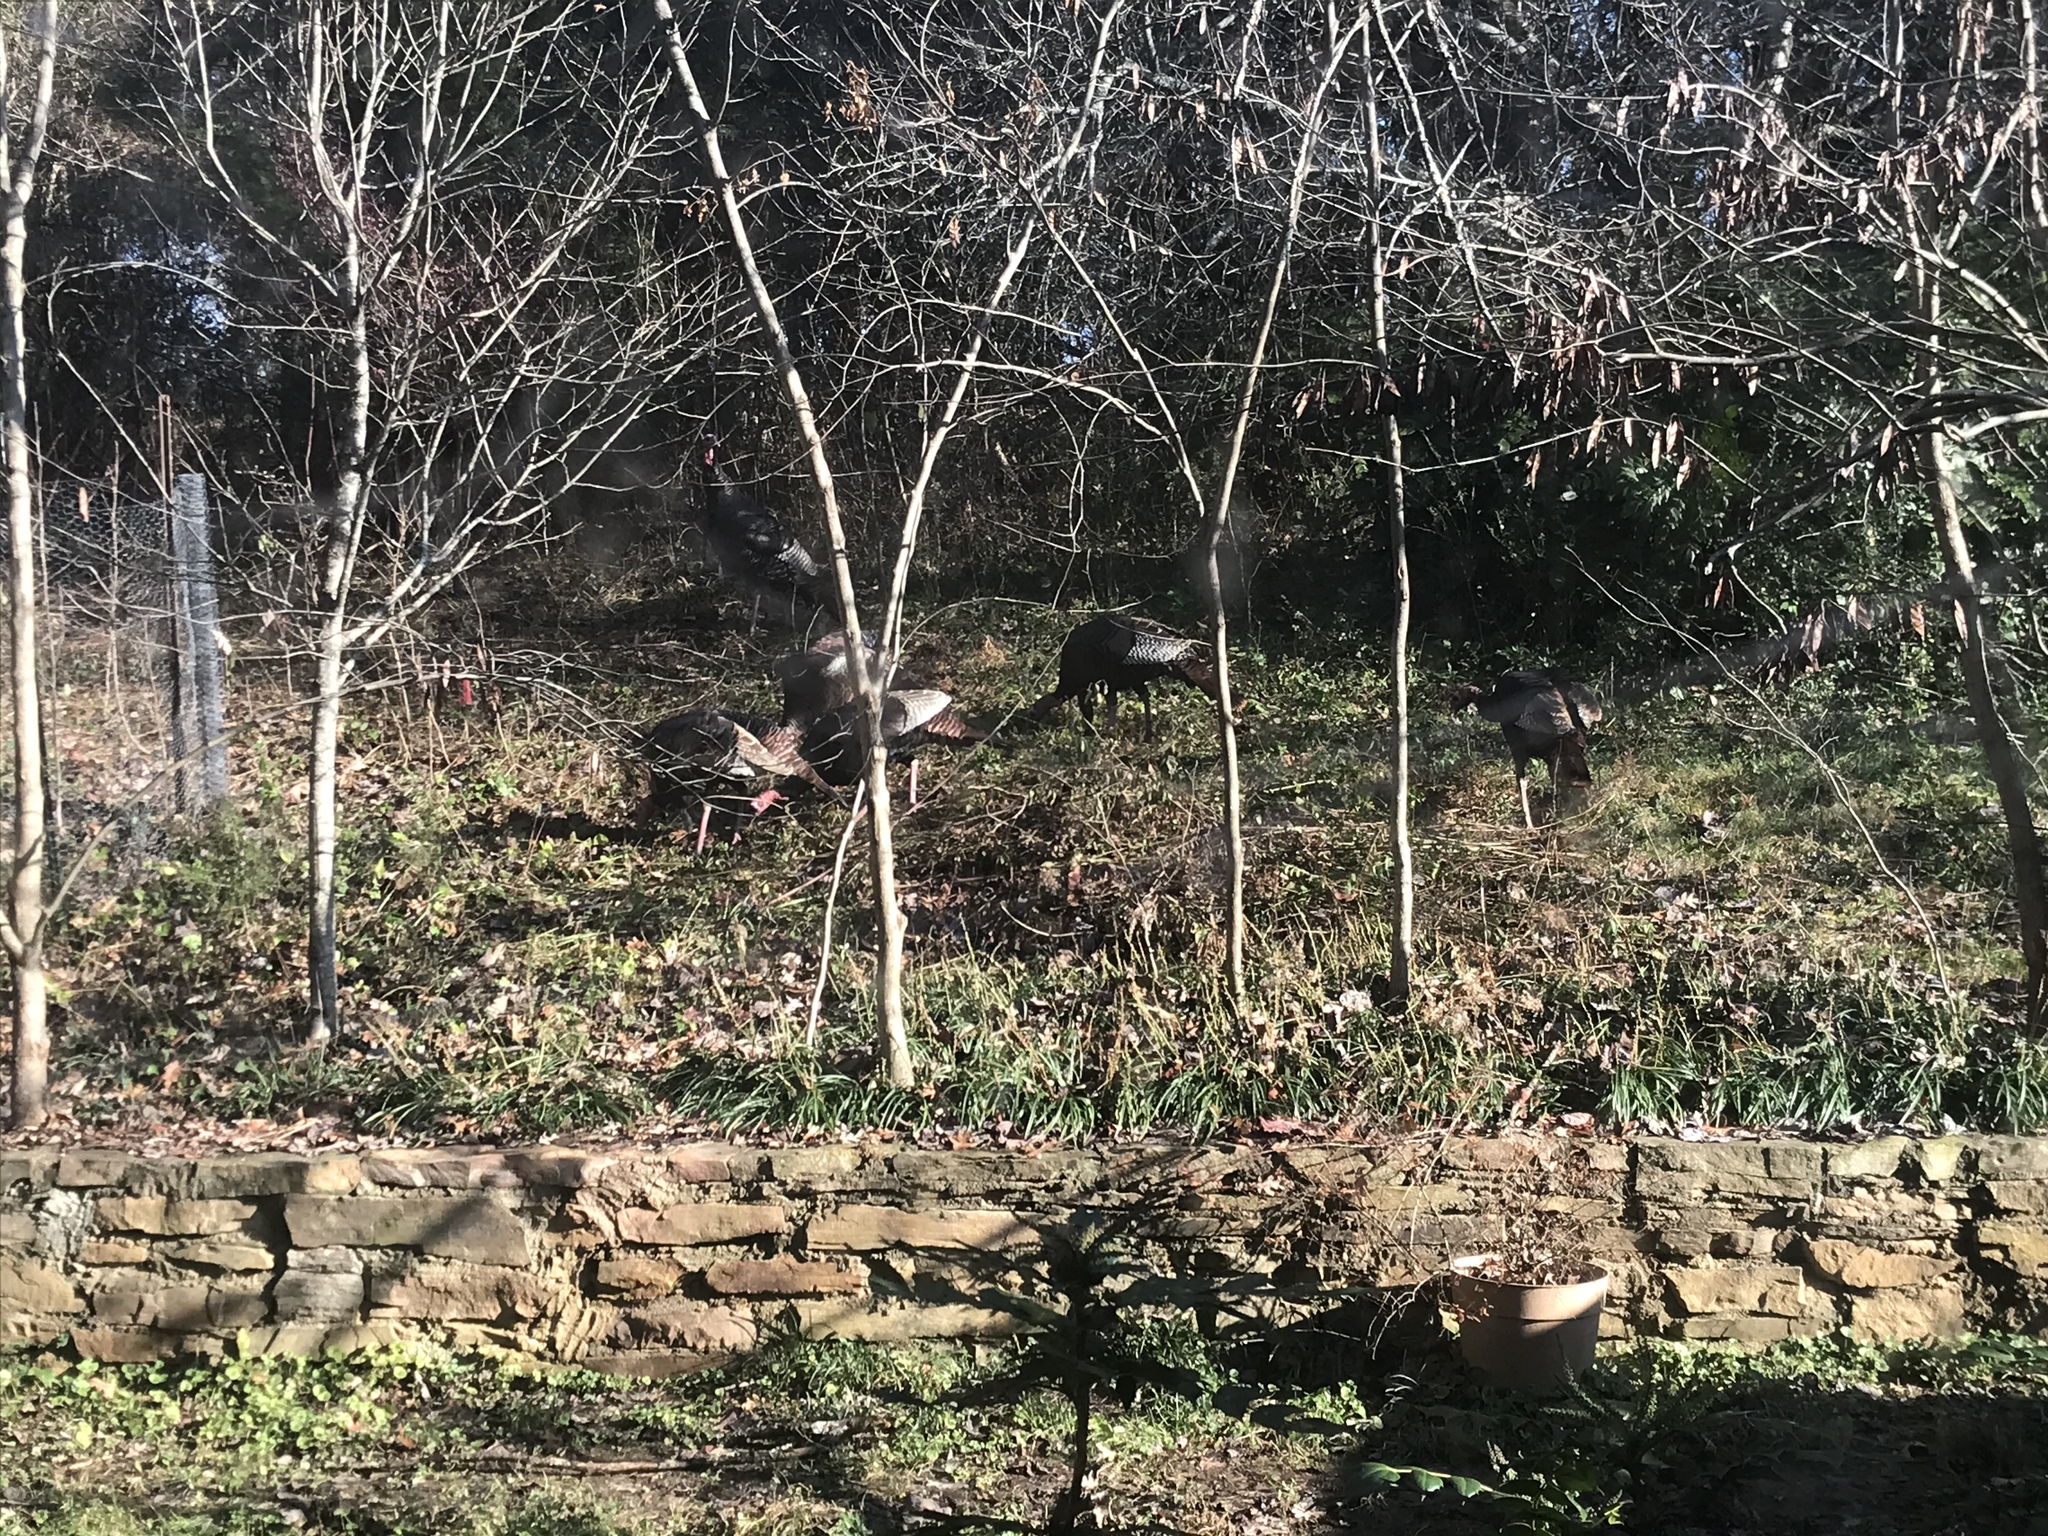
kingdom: Animalia
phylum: Chordata
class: Aves
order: Galliformes
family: Phasianidae
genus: Meleagris
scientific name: Meleagris gallopavo
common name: Wild turkey
